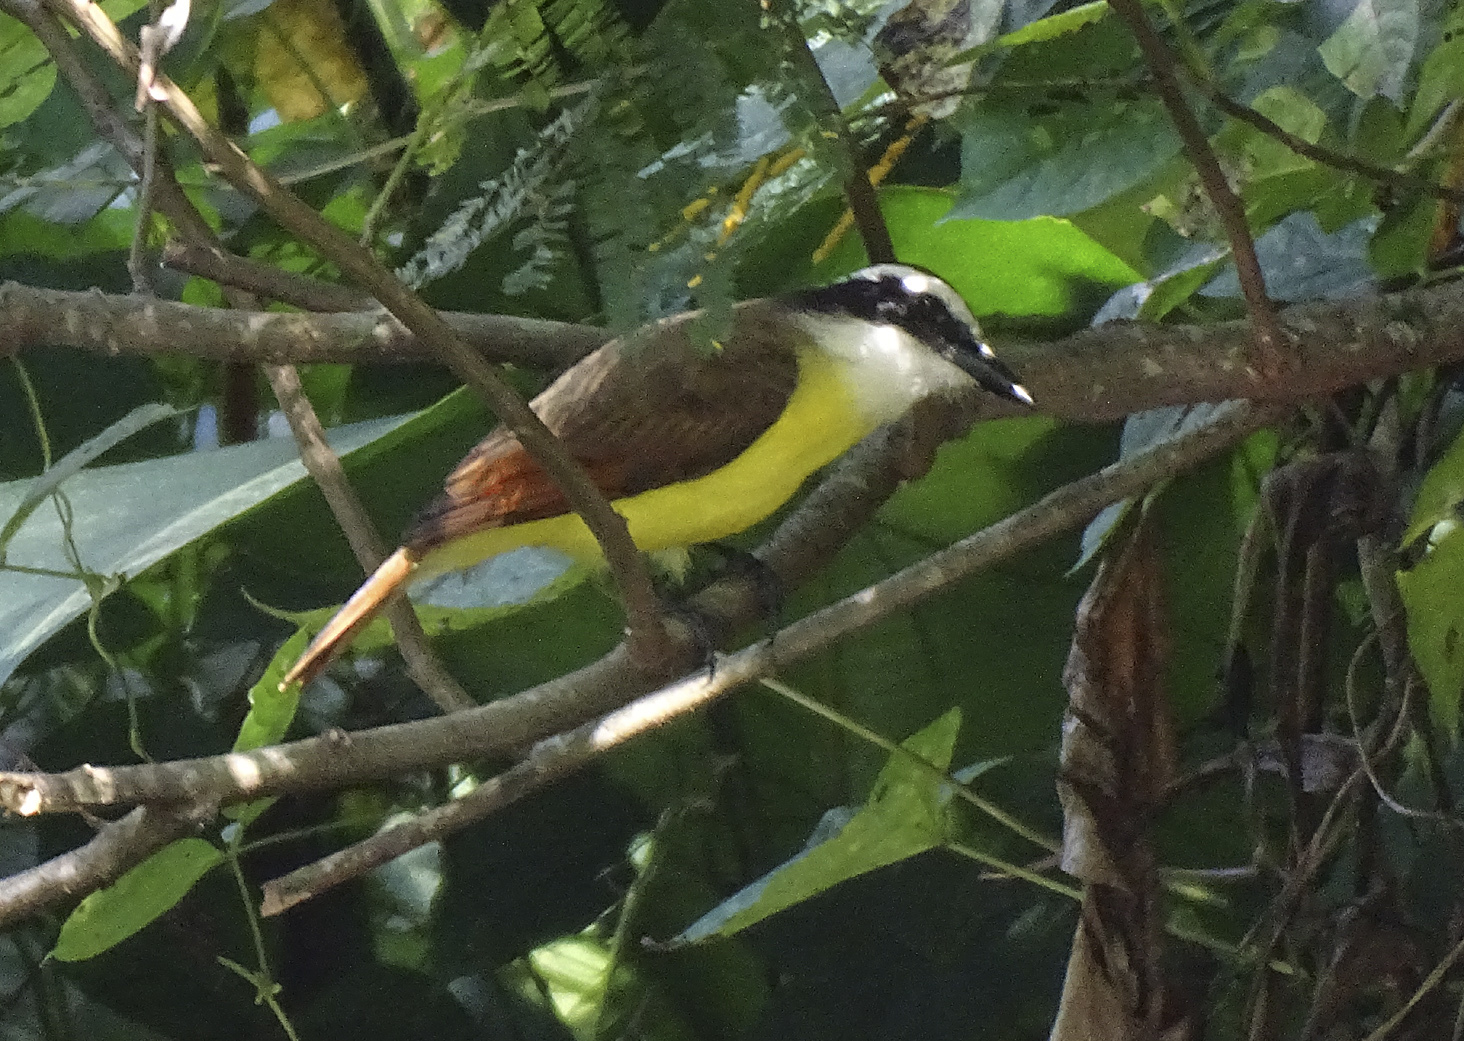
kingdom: Animalia
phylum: Chordata
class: Aves
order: Passeriformes
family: Tyrannidae
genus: Pitangus
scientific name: Pitangus sulphuratus
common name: Great kiskadee
